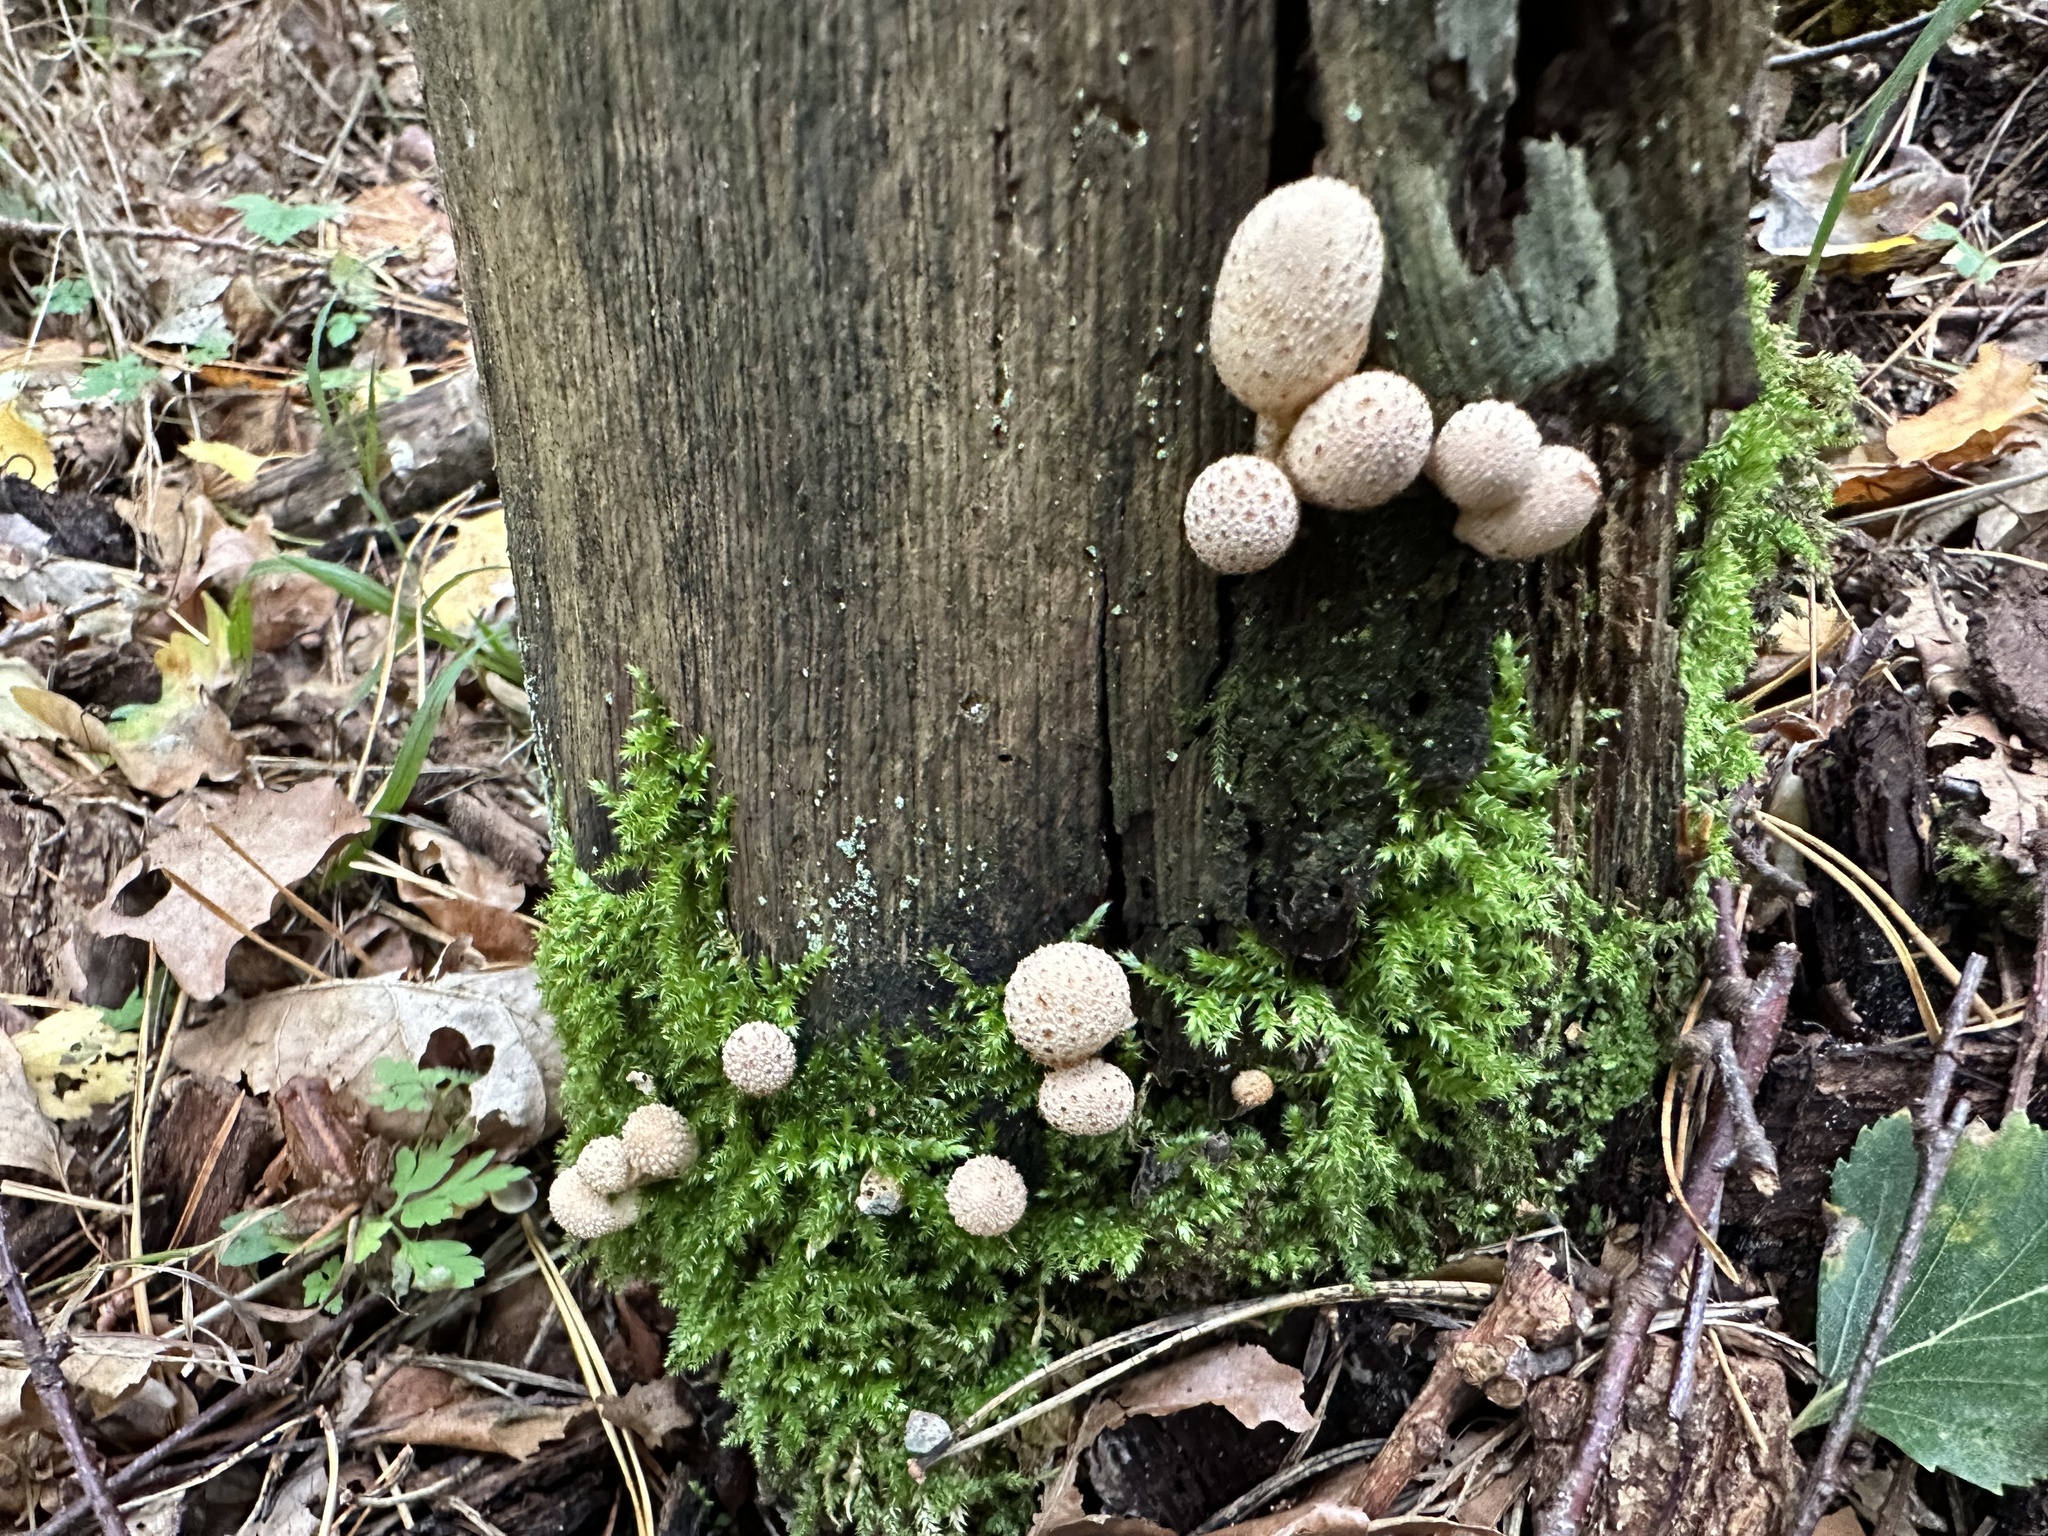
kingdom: Fungi
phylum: Basidiomycota
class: Agaricomycetes
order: Agaricales
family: Lycoperdaceae
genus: Apioperdon
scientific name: Apioperdon pyriforme
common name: Pear-shaped puffball
